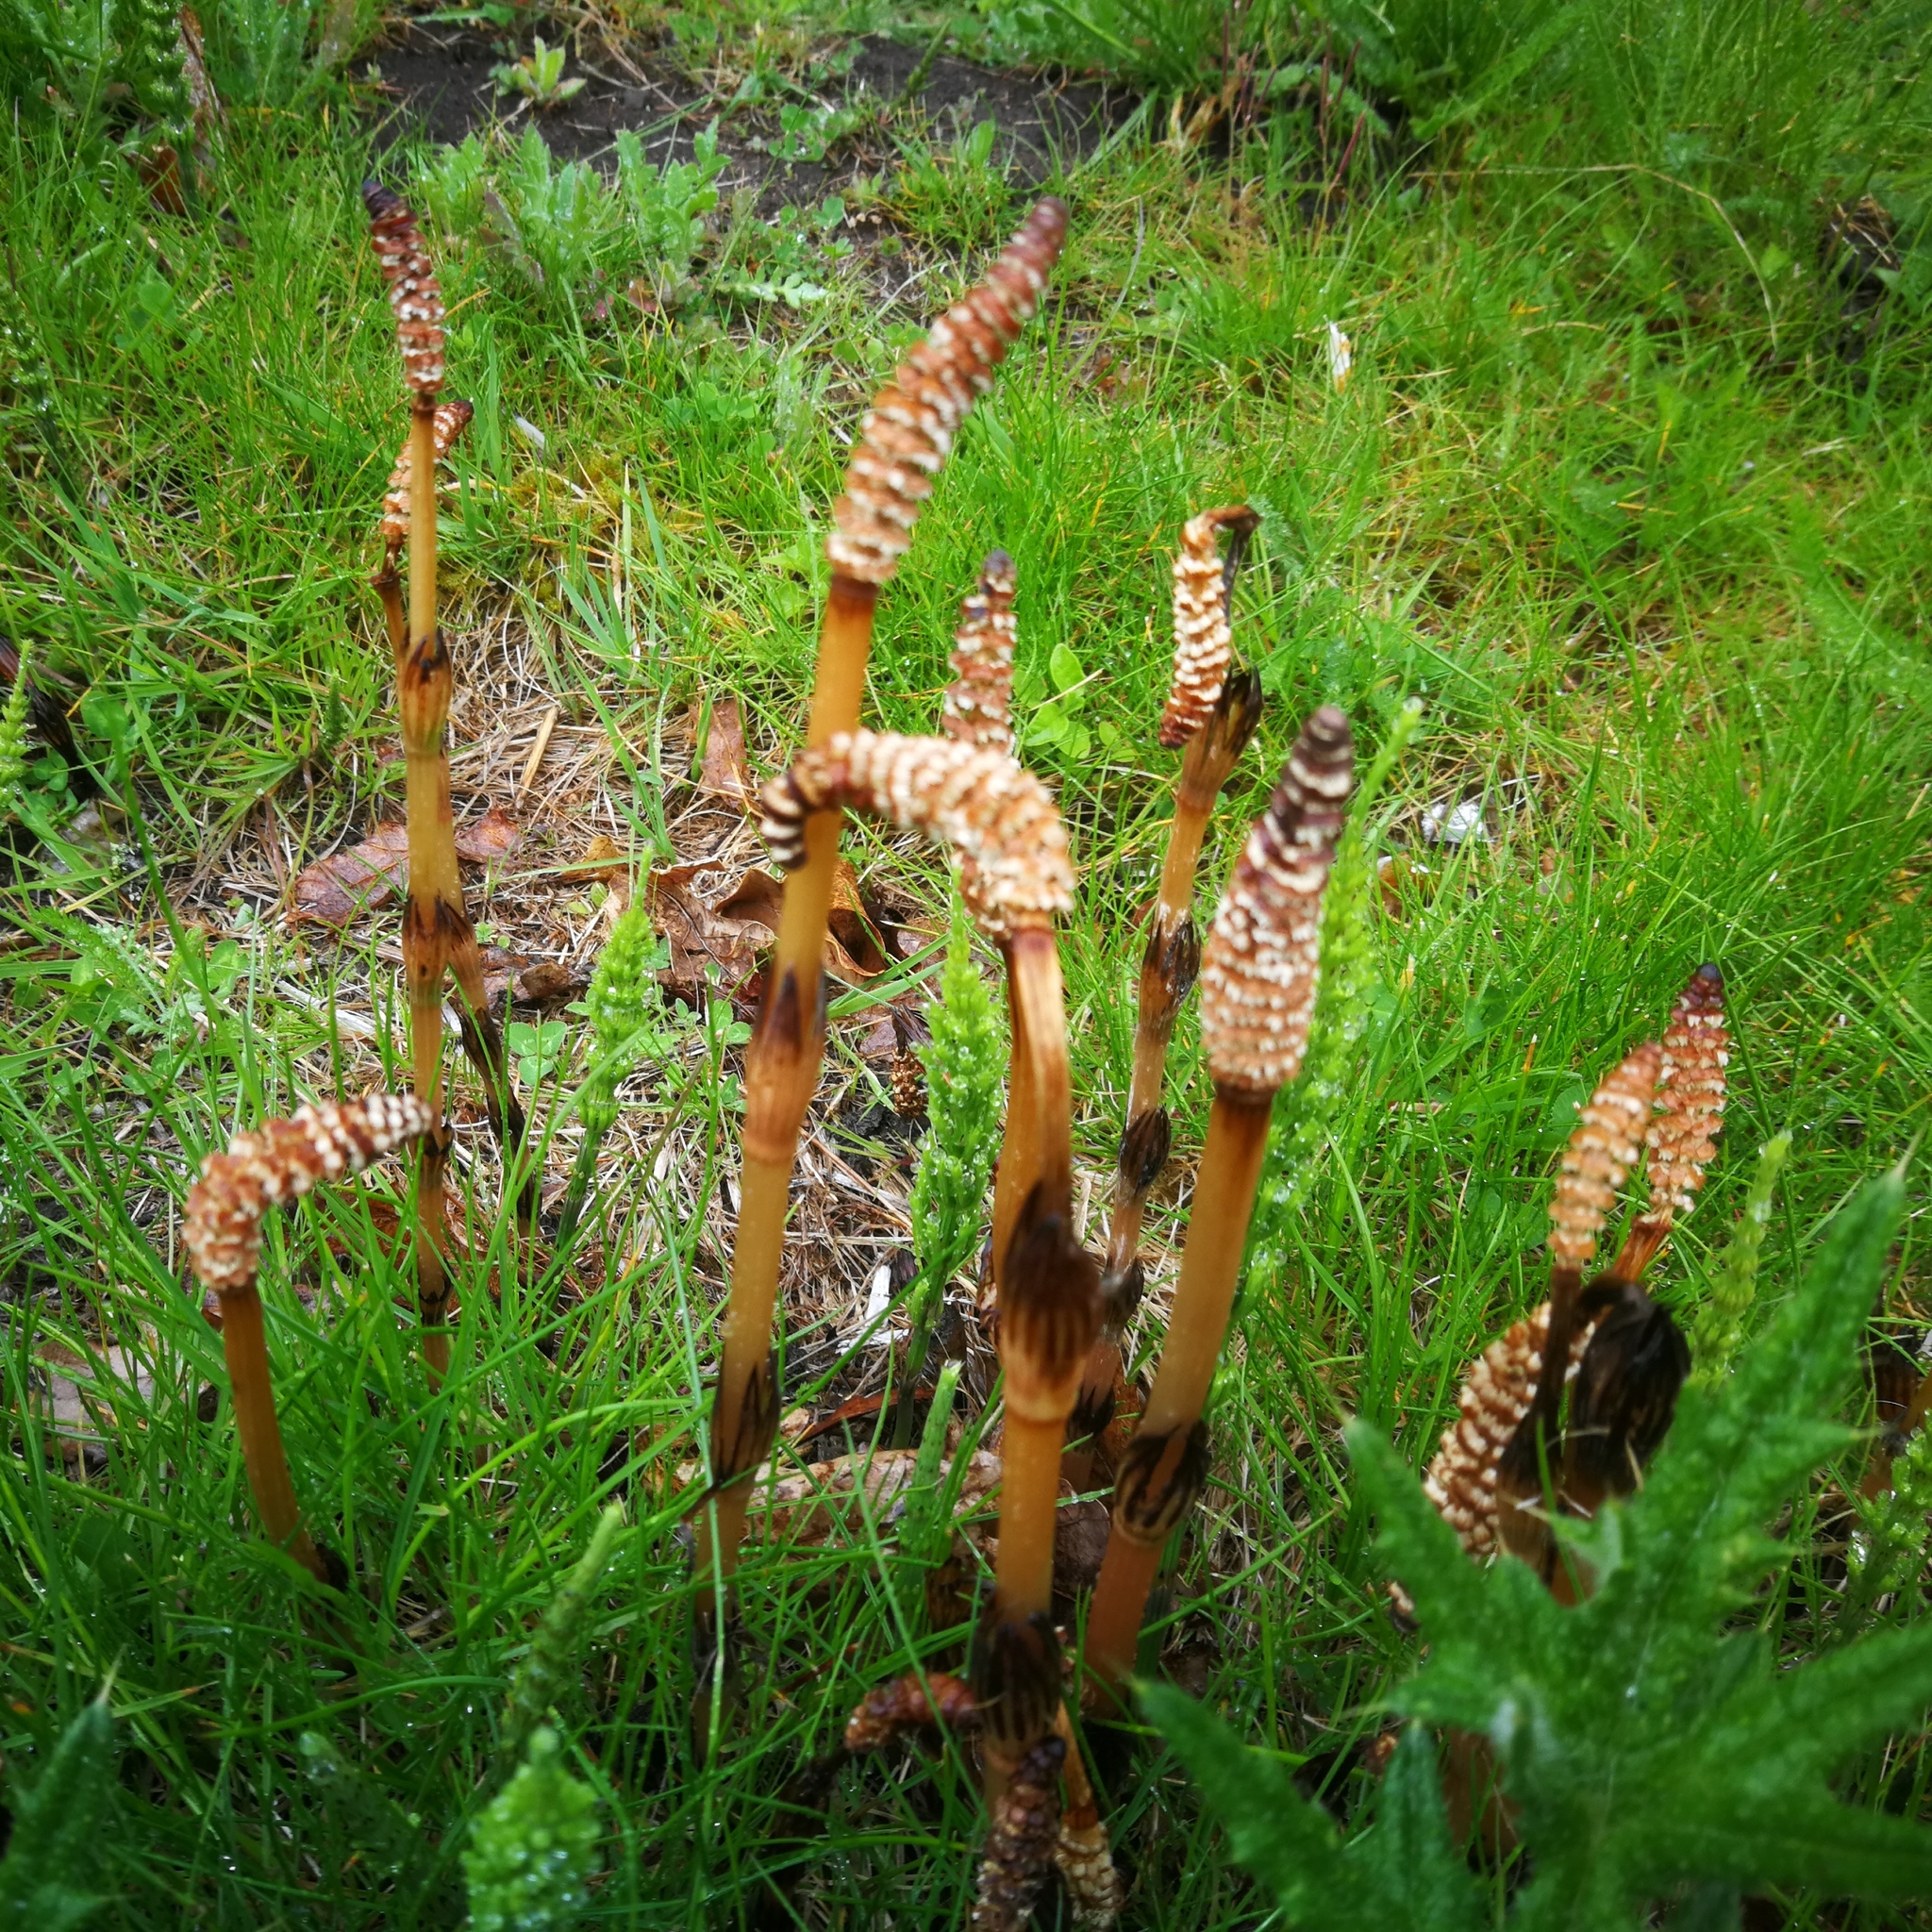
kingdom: Plantae
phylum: Tracheophyta
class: Polypodiopsida
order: Equisetales
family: Equisetaceae
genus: Equisetum
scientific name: Equisetum arvense
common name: Field horsetail
